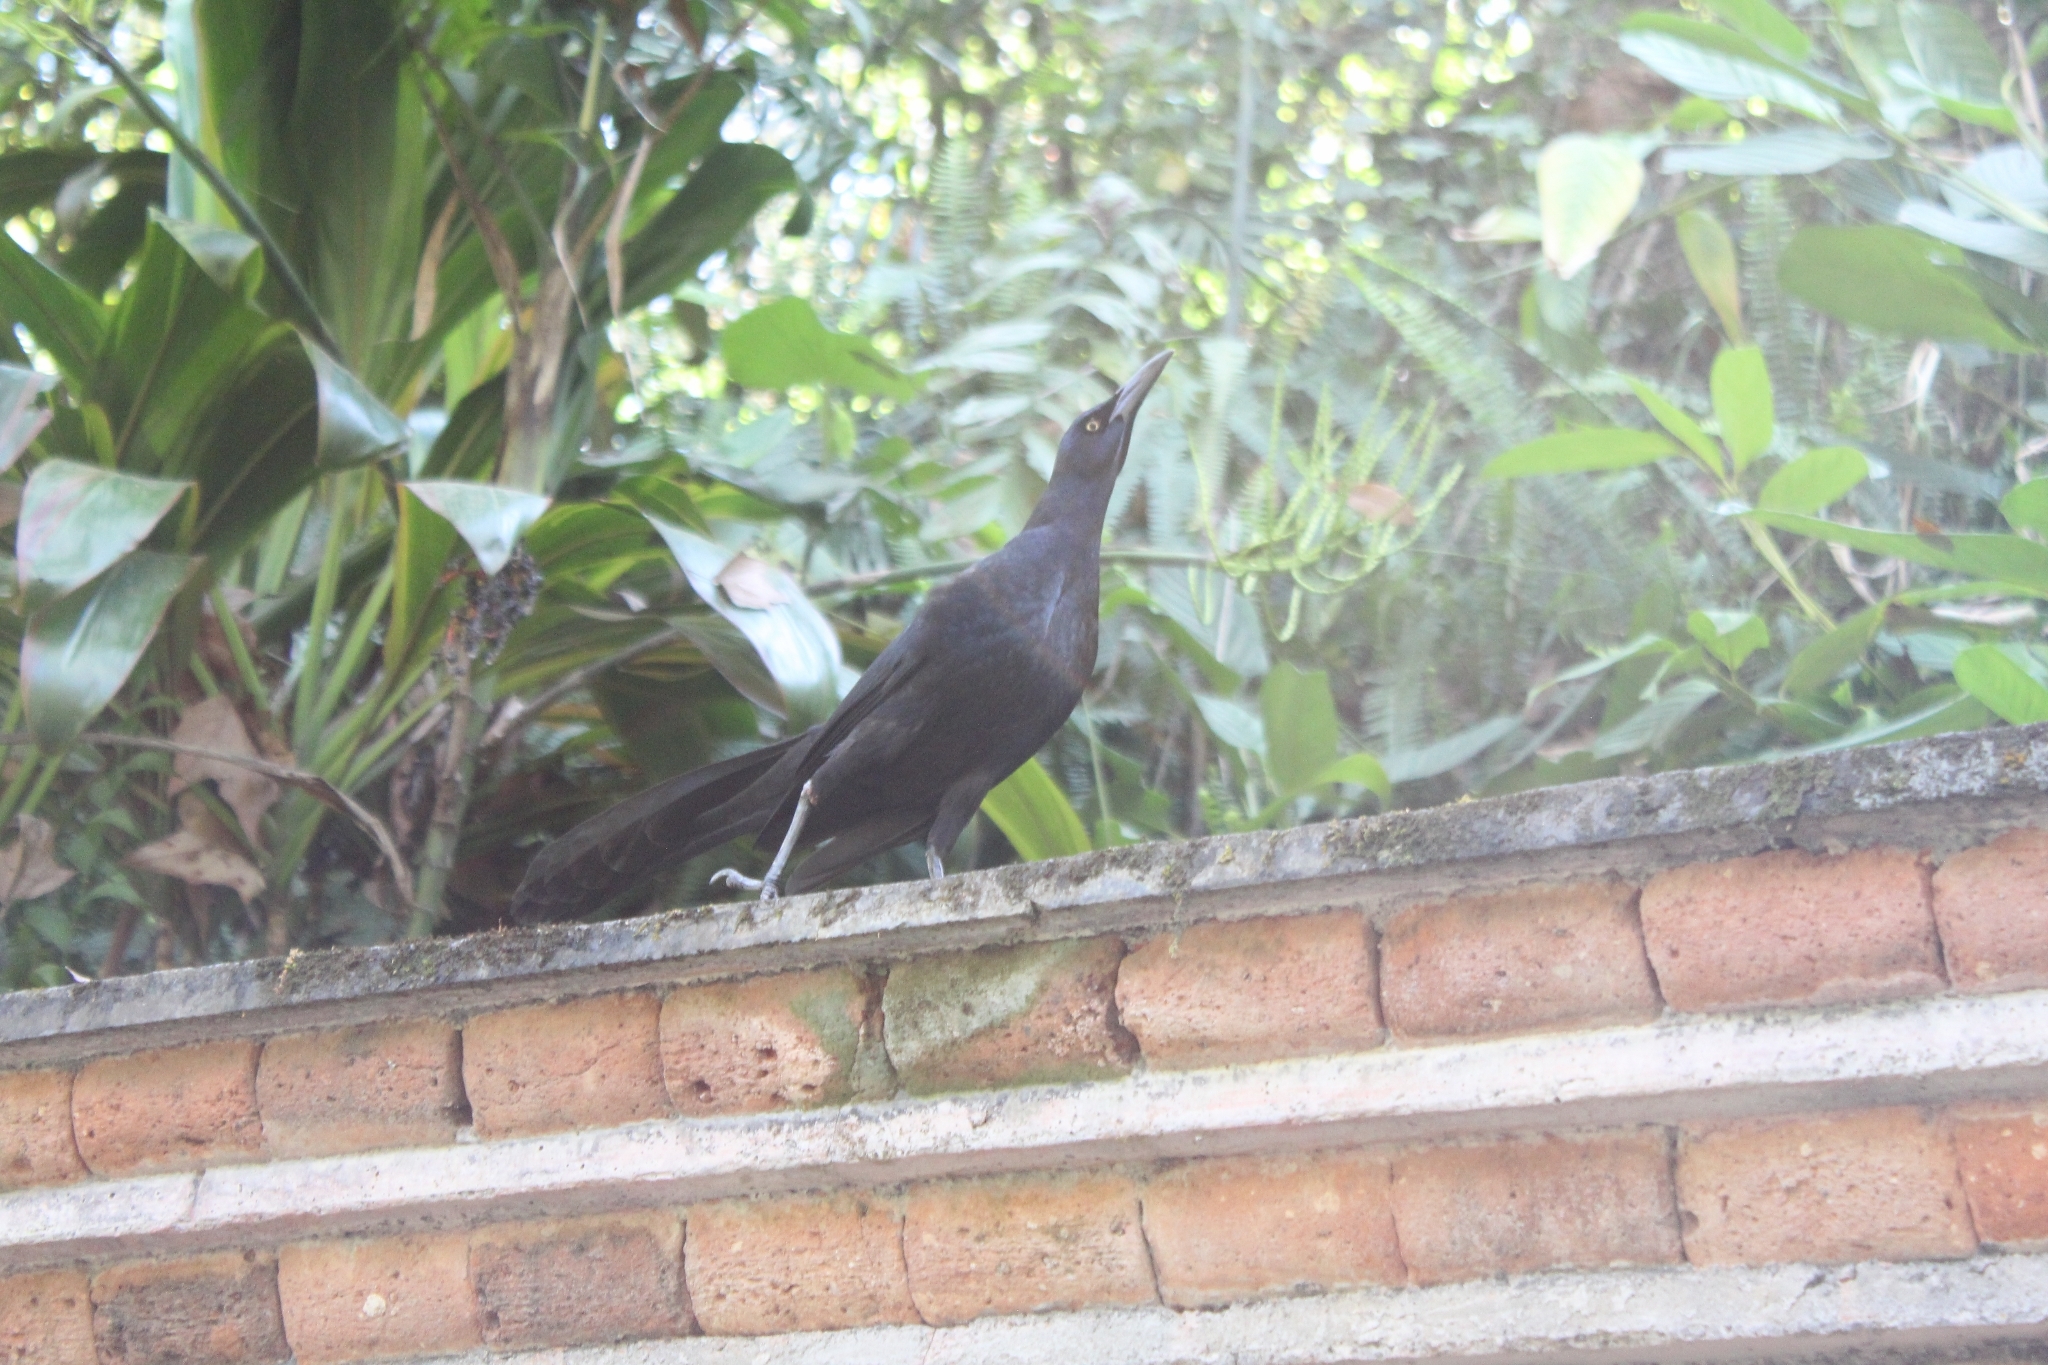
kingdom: Animalia
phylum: Chordata
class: Aves
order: Passeriformes
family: Icteridae
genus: Quiscalus
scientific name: Quiscalus mexicanus
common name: Great-tailed grackle
